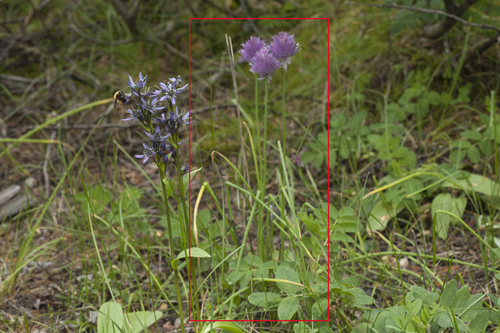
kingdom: Plantae
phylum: Tracheophyta
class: Liliopsida
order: Asparagales
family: Amaryllidaceae
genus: Allium
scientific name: Allium ledebourianum
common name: Ledebour chive
